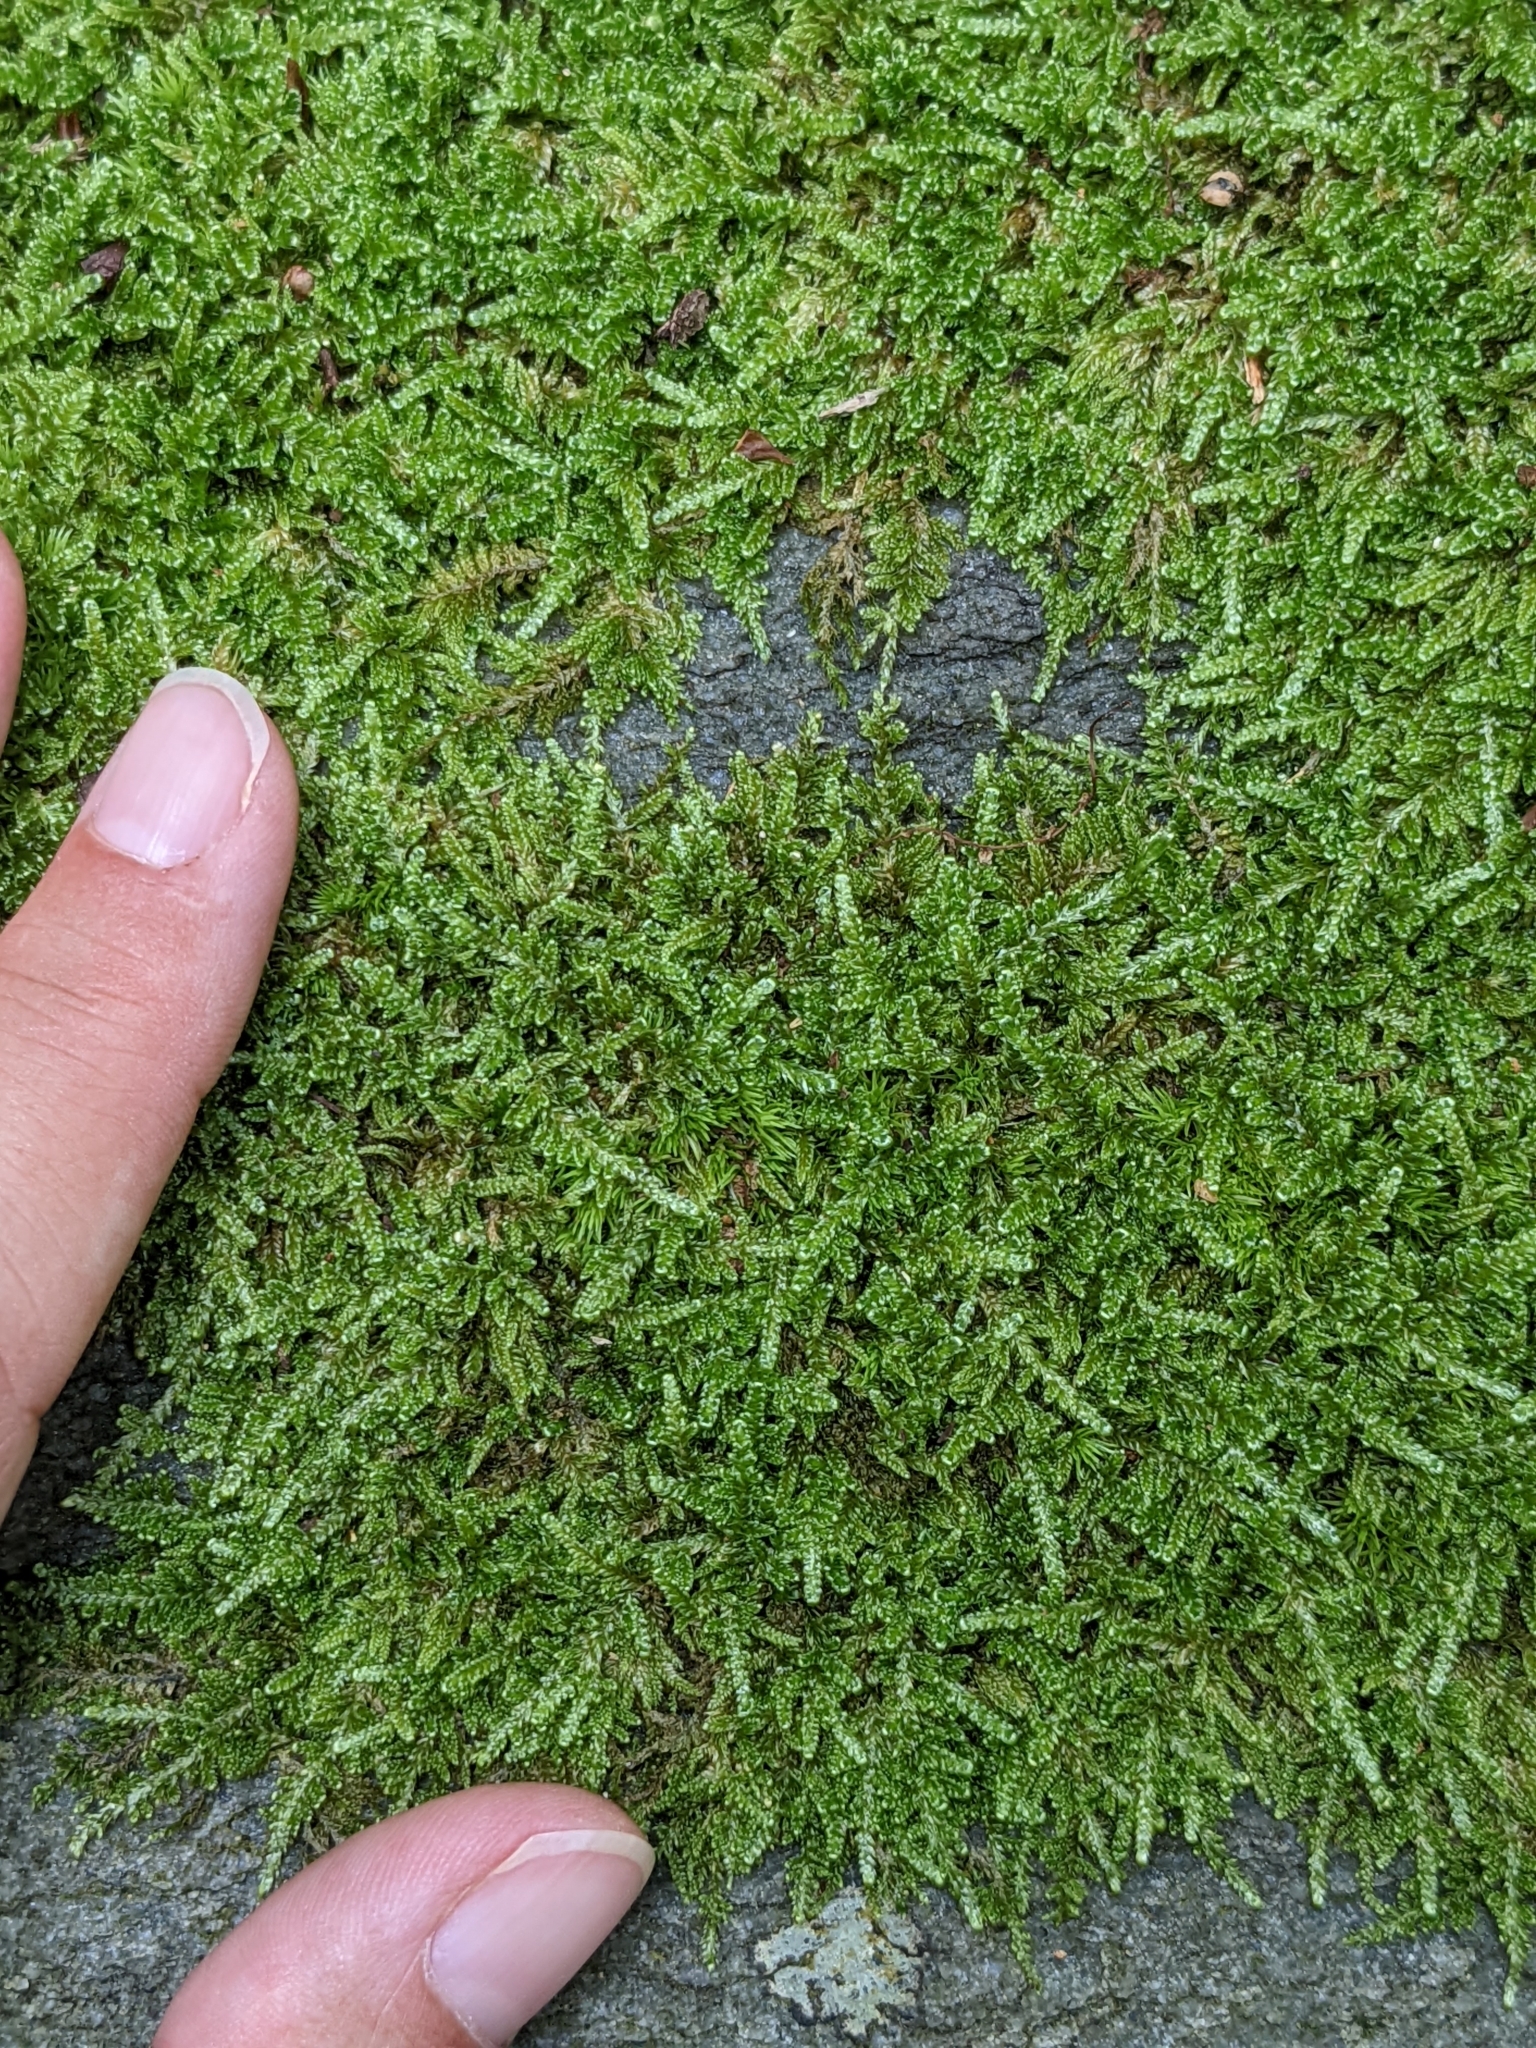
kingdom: Plantae
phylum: Bryophyta
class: Bryopsida
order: Hypnales
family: Callicladiaceae
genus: Callicladium
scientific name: Callicladium imponens
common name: Brocade moss
